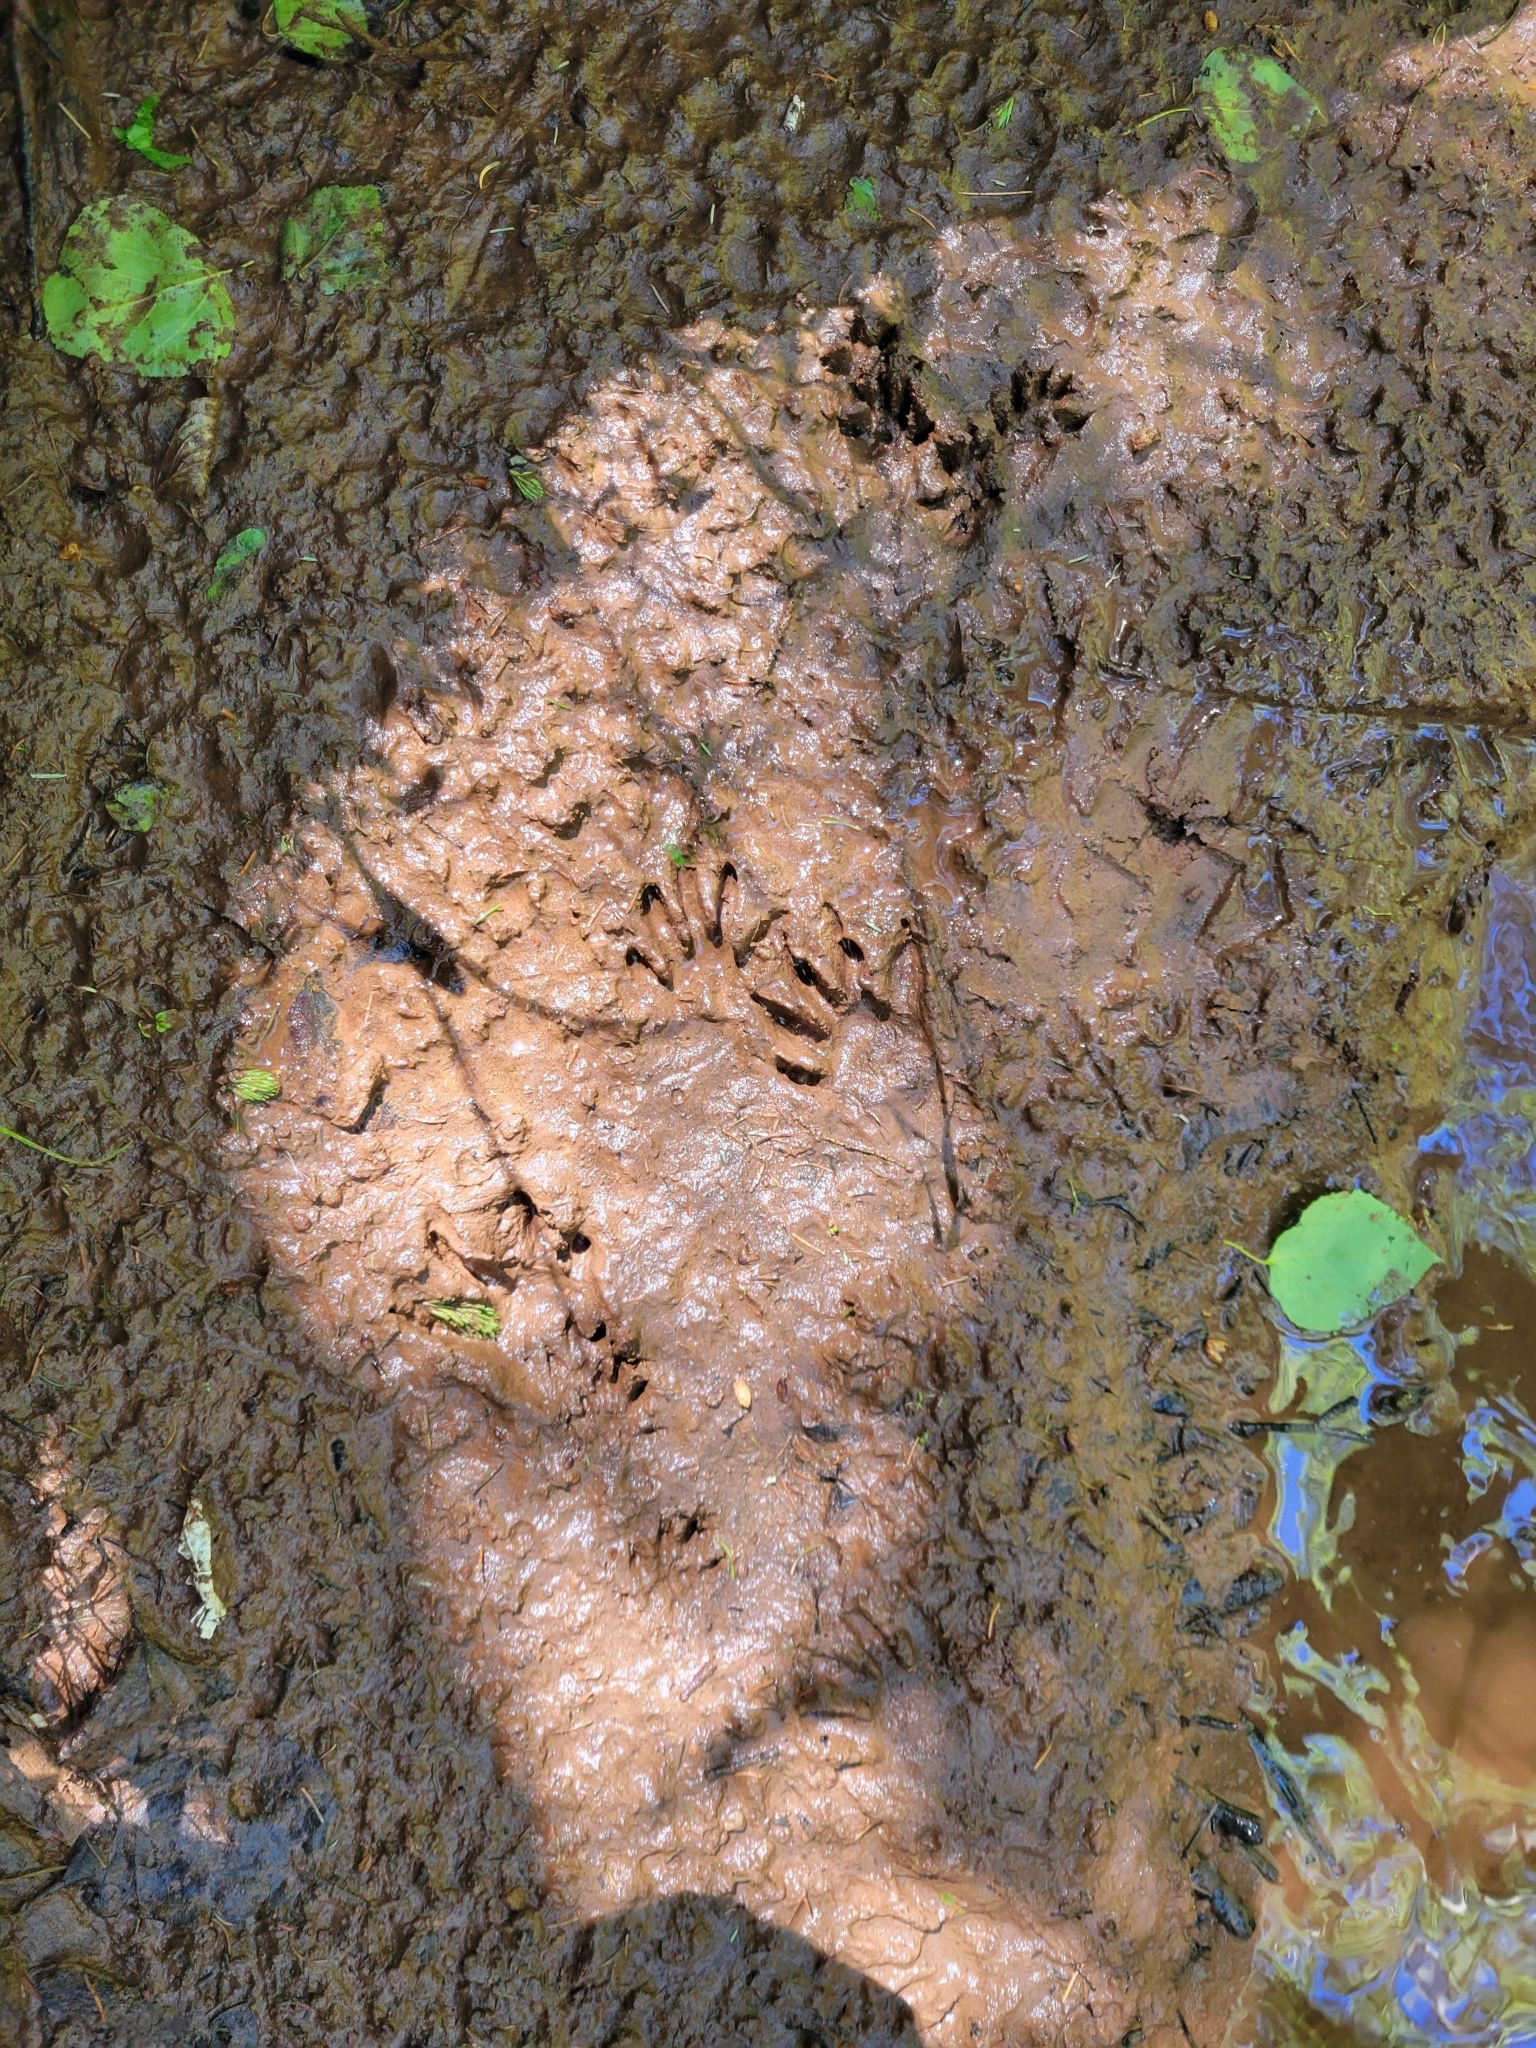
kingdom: Animalia
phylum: Chordata
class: Mammalia
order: Carnivora
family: Procyonidae
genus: Procyon
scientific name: Procyon lotor
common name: Raccoon
